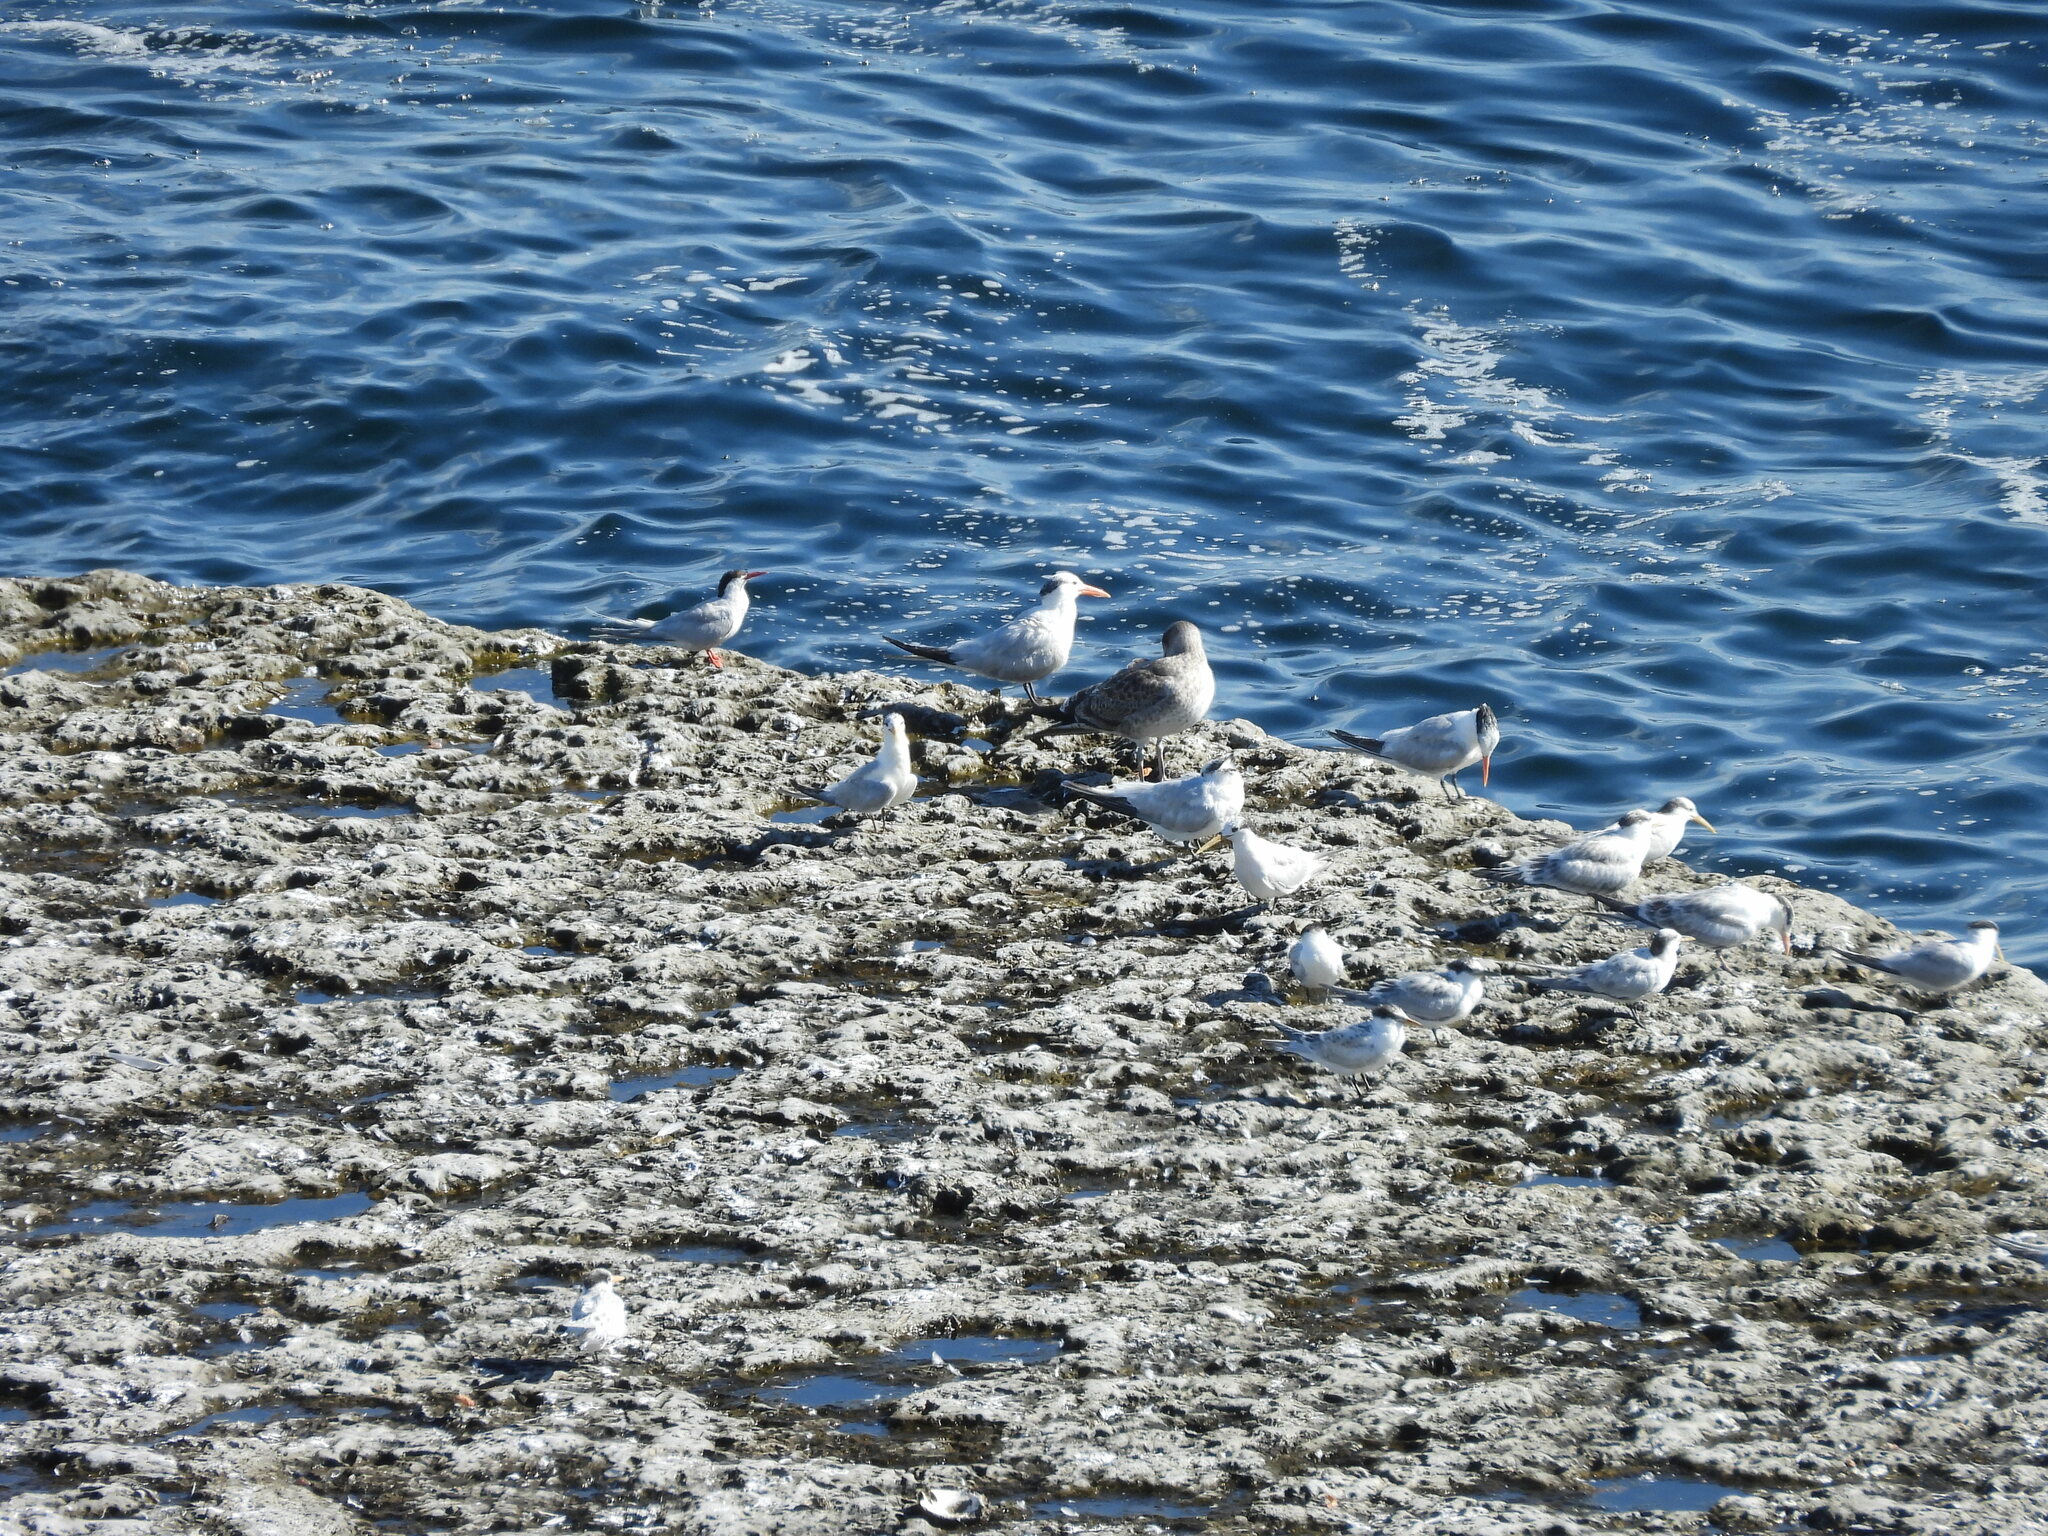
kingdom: Animalia
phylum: Chordata
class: Aves
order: Charadriiformes
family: Laridae
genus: Thalasseus
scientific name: Thalasseus maximus
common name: Royal tern
